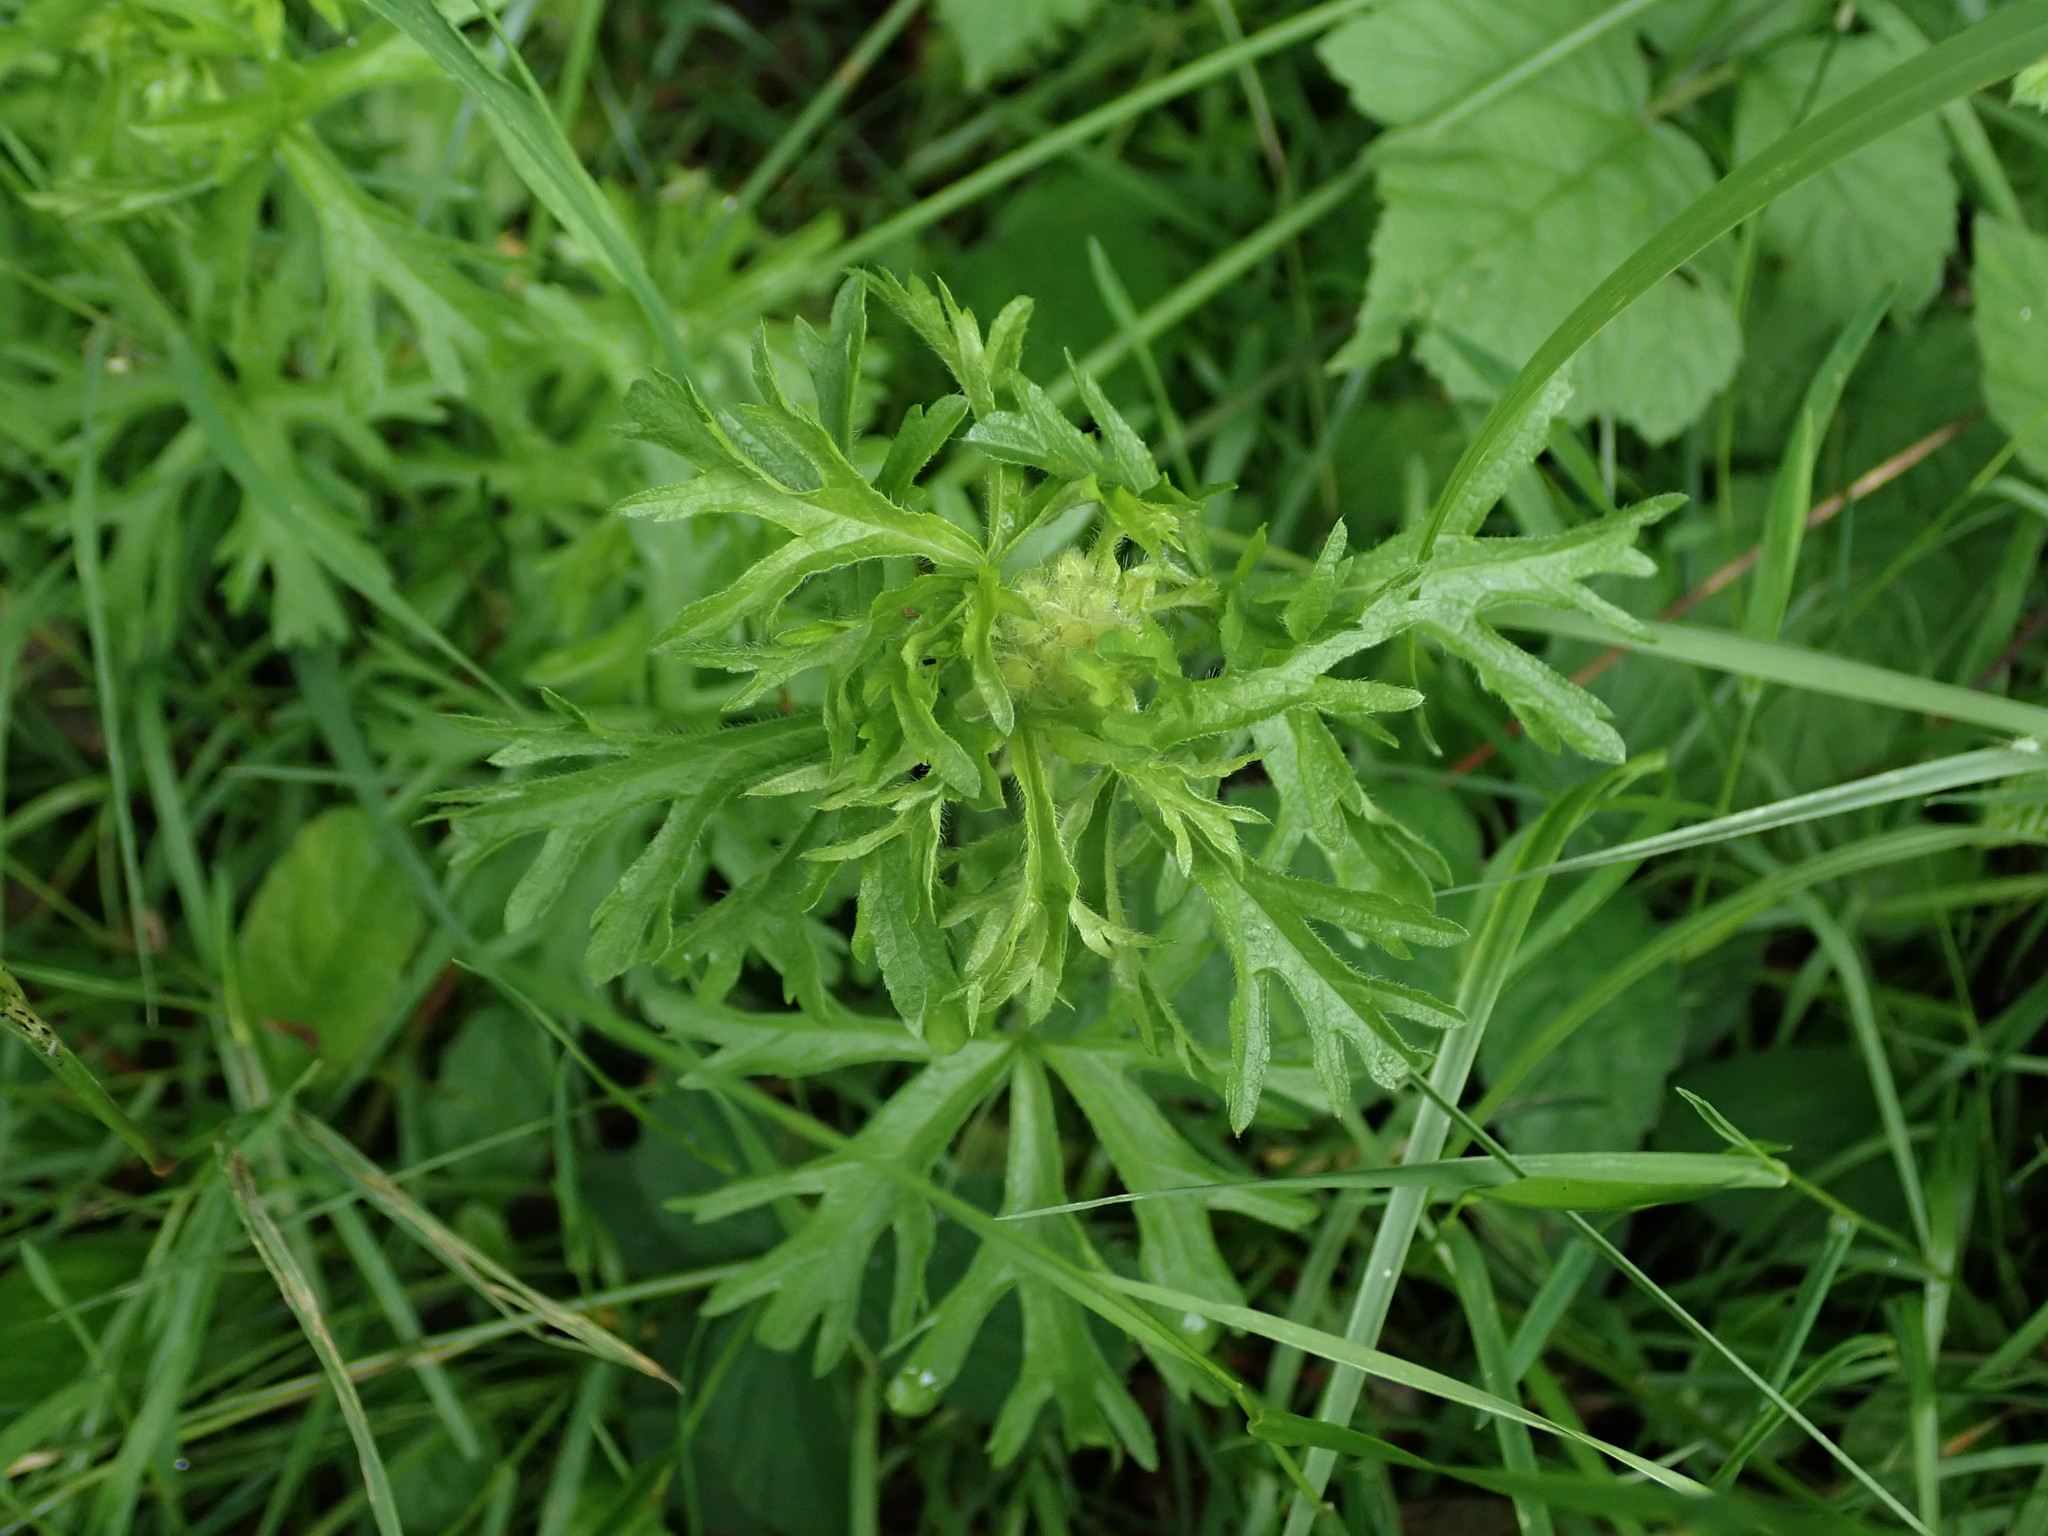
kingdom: Plantae
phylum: Tracheophyta
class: Magnoliopsida
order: Malvales
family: Malvaceae
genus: Malva
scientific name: Malva moschata
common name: Musk mallow
